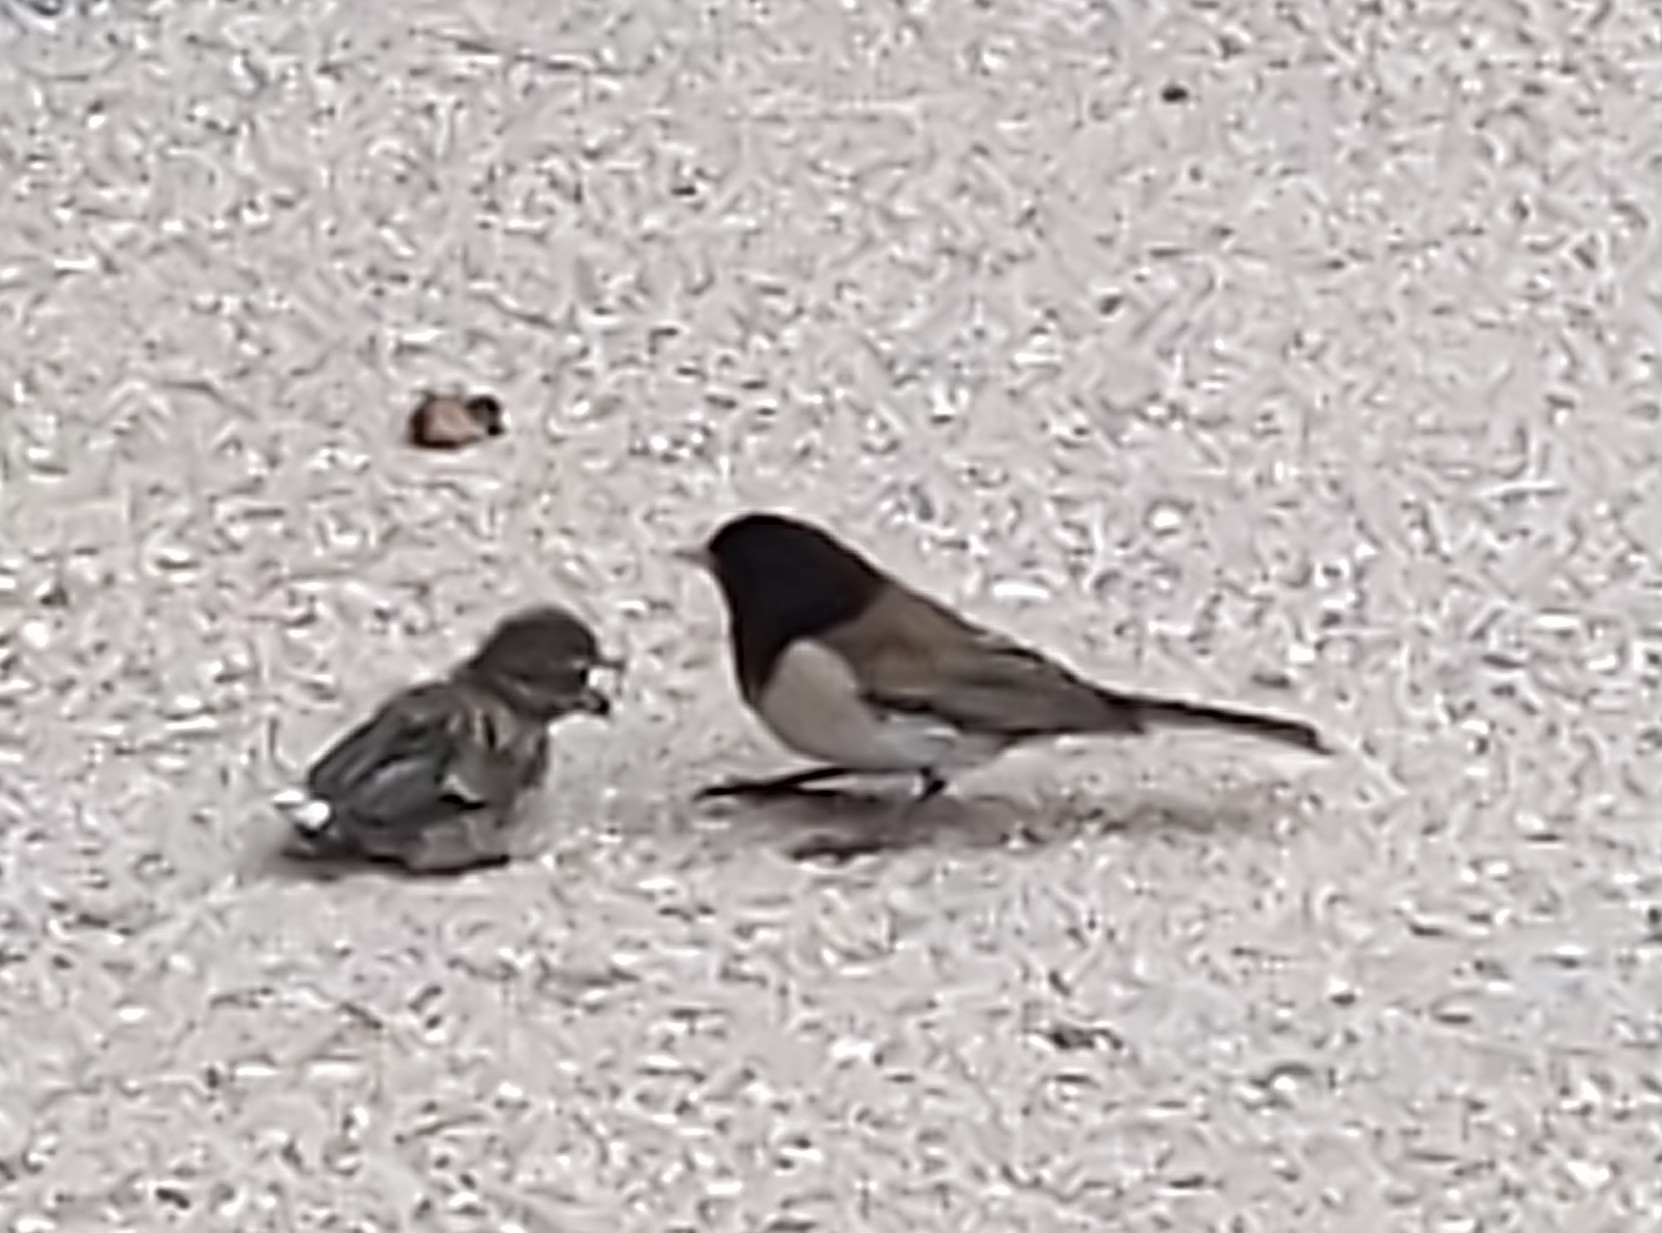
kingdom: Animalia
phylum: Chordata
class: Aves
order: Passeriformes
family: Passerellidae
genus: Junco
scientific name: Junco hyemalis
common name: Dark-eyed junco
